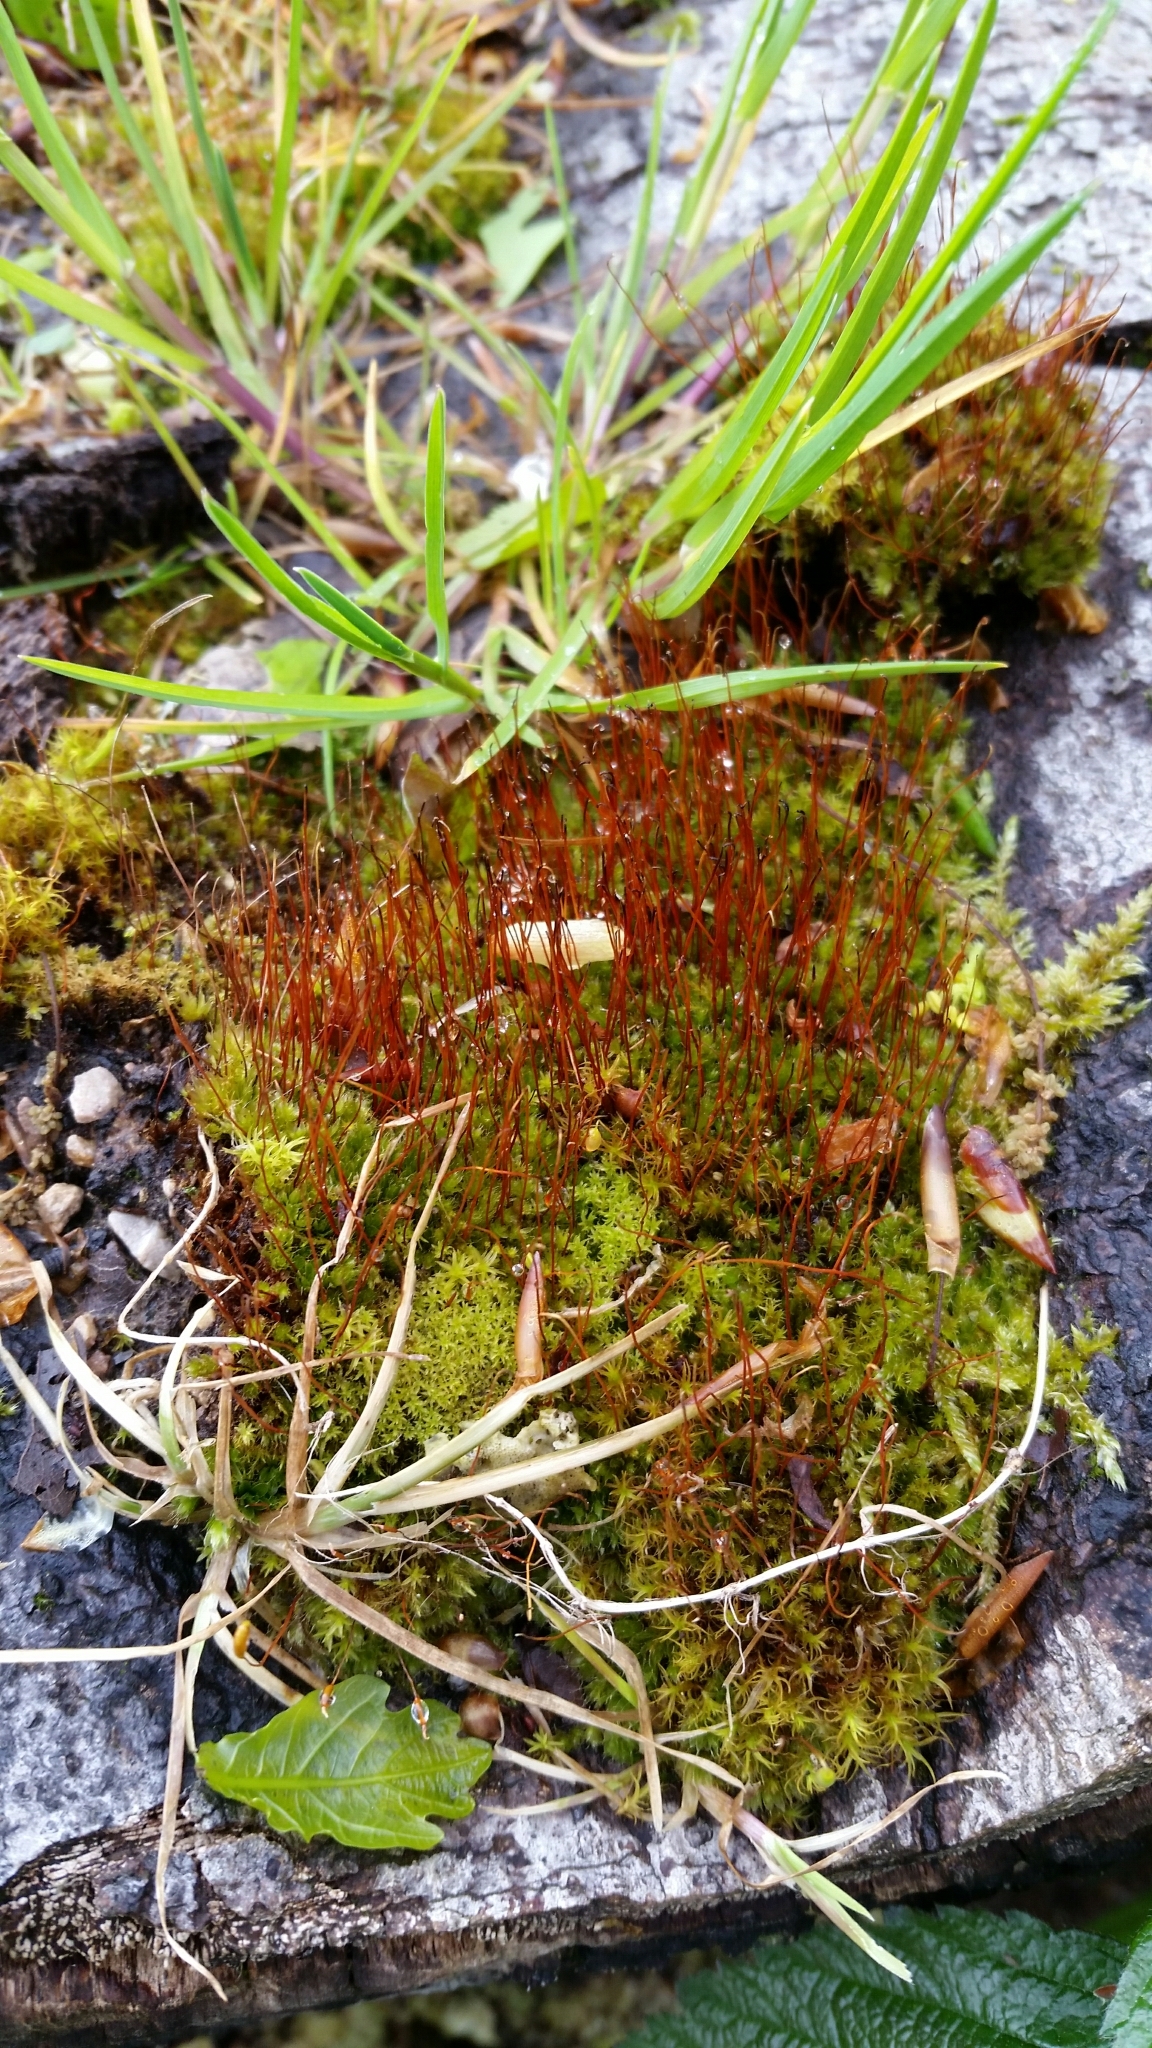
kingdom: Plantae
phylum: Bryophyta
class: Bryopsida
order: Bryales
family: Bryaceae
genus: Rosulabryum
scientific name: Rosulabryum capillare
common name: Capillary thread-moss
